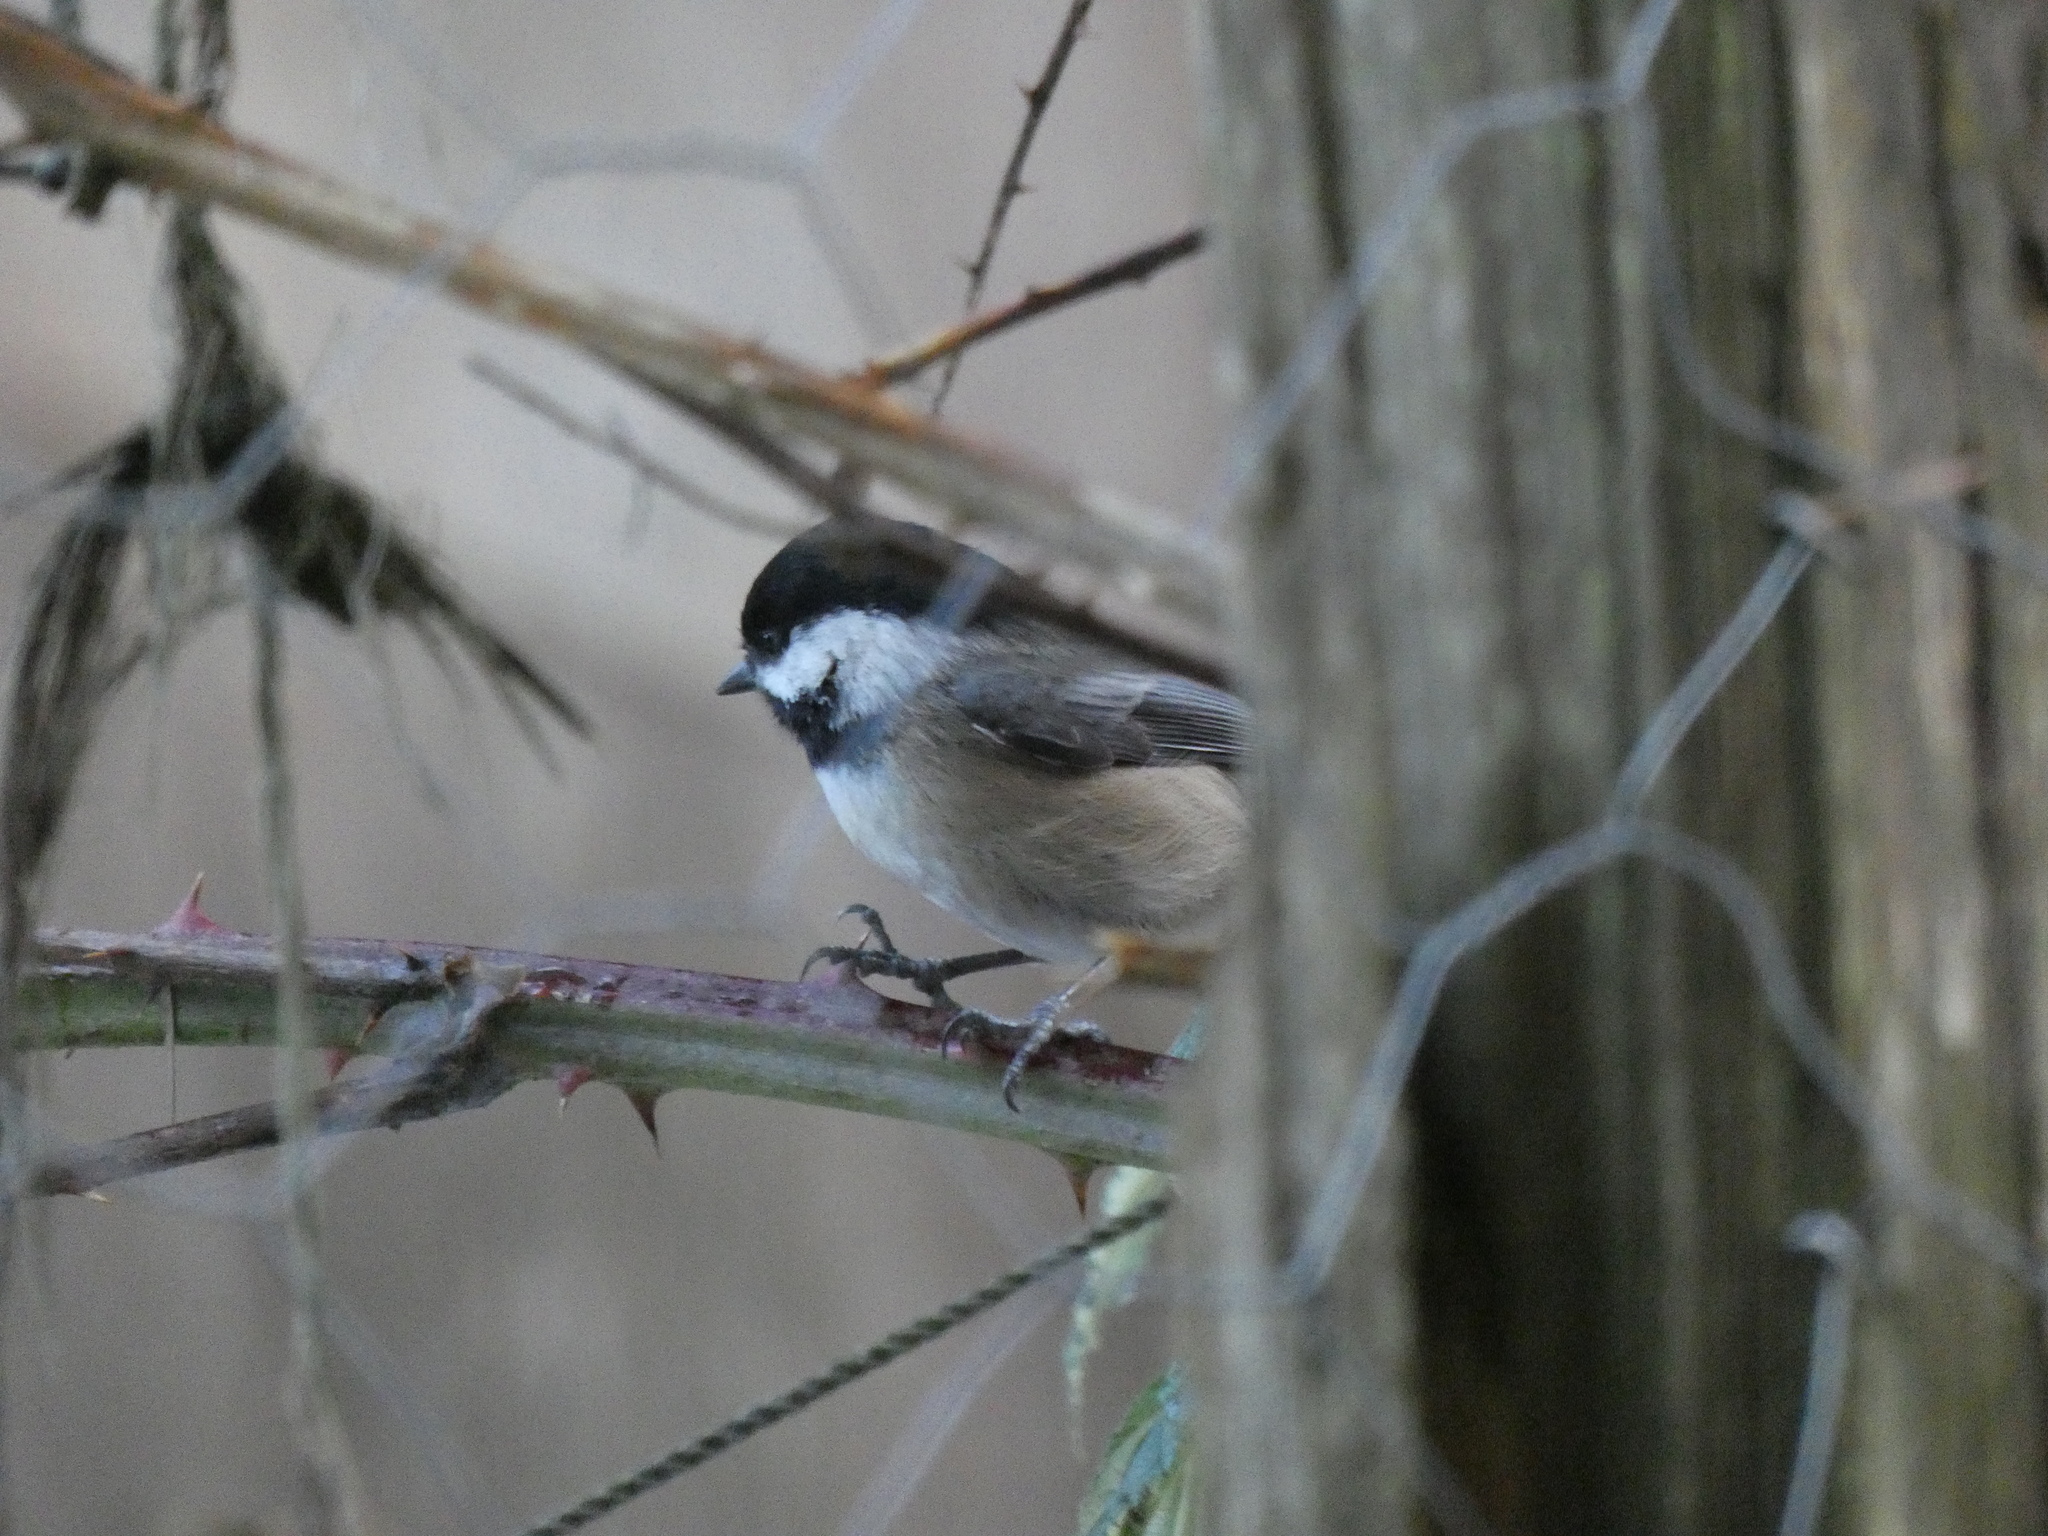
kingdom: Animalia
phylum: Chordata
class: Aves
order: Passeriformes
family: Paridae
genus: Poecile
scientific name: Poecile atricapillus
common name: Black-capped chickadee
